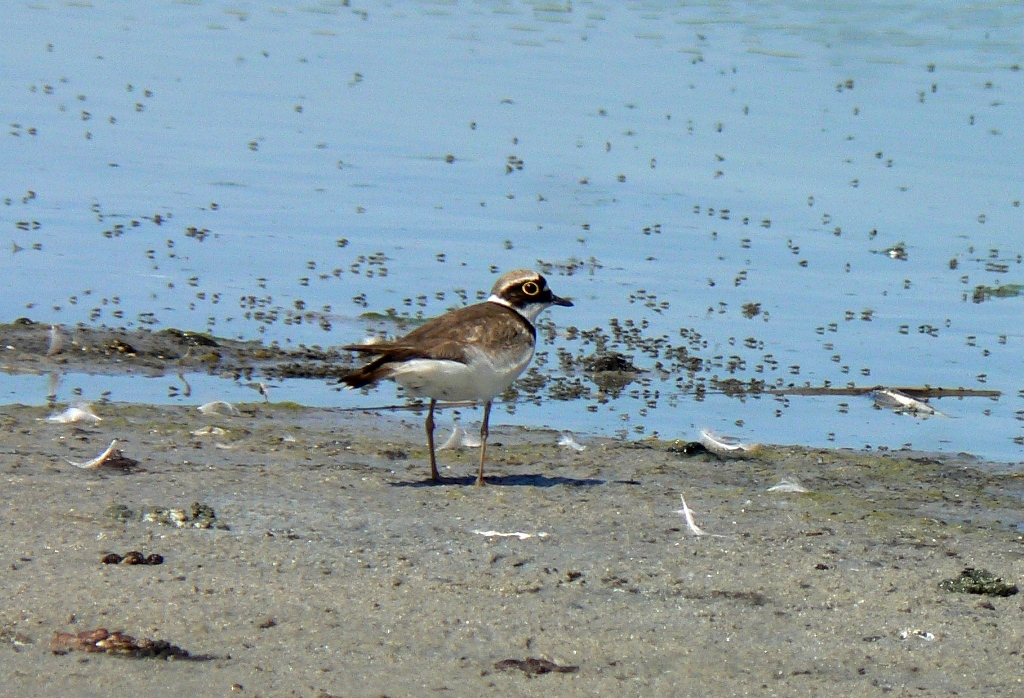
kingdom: Animalia
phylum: Chordata
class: Aves
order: Charadriiformes
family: Charadriidae
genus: Charadrius
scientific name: Charadrius dubius
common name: Little ringed plover
